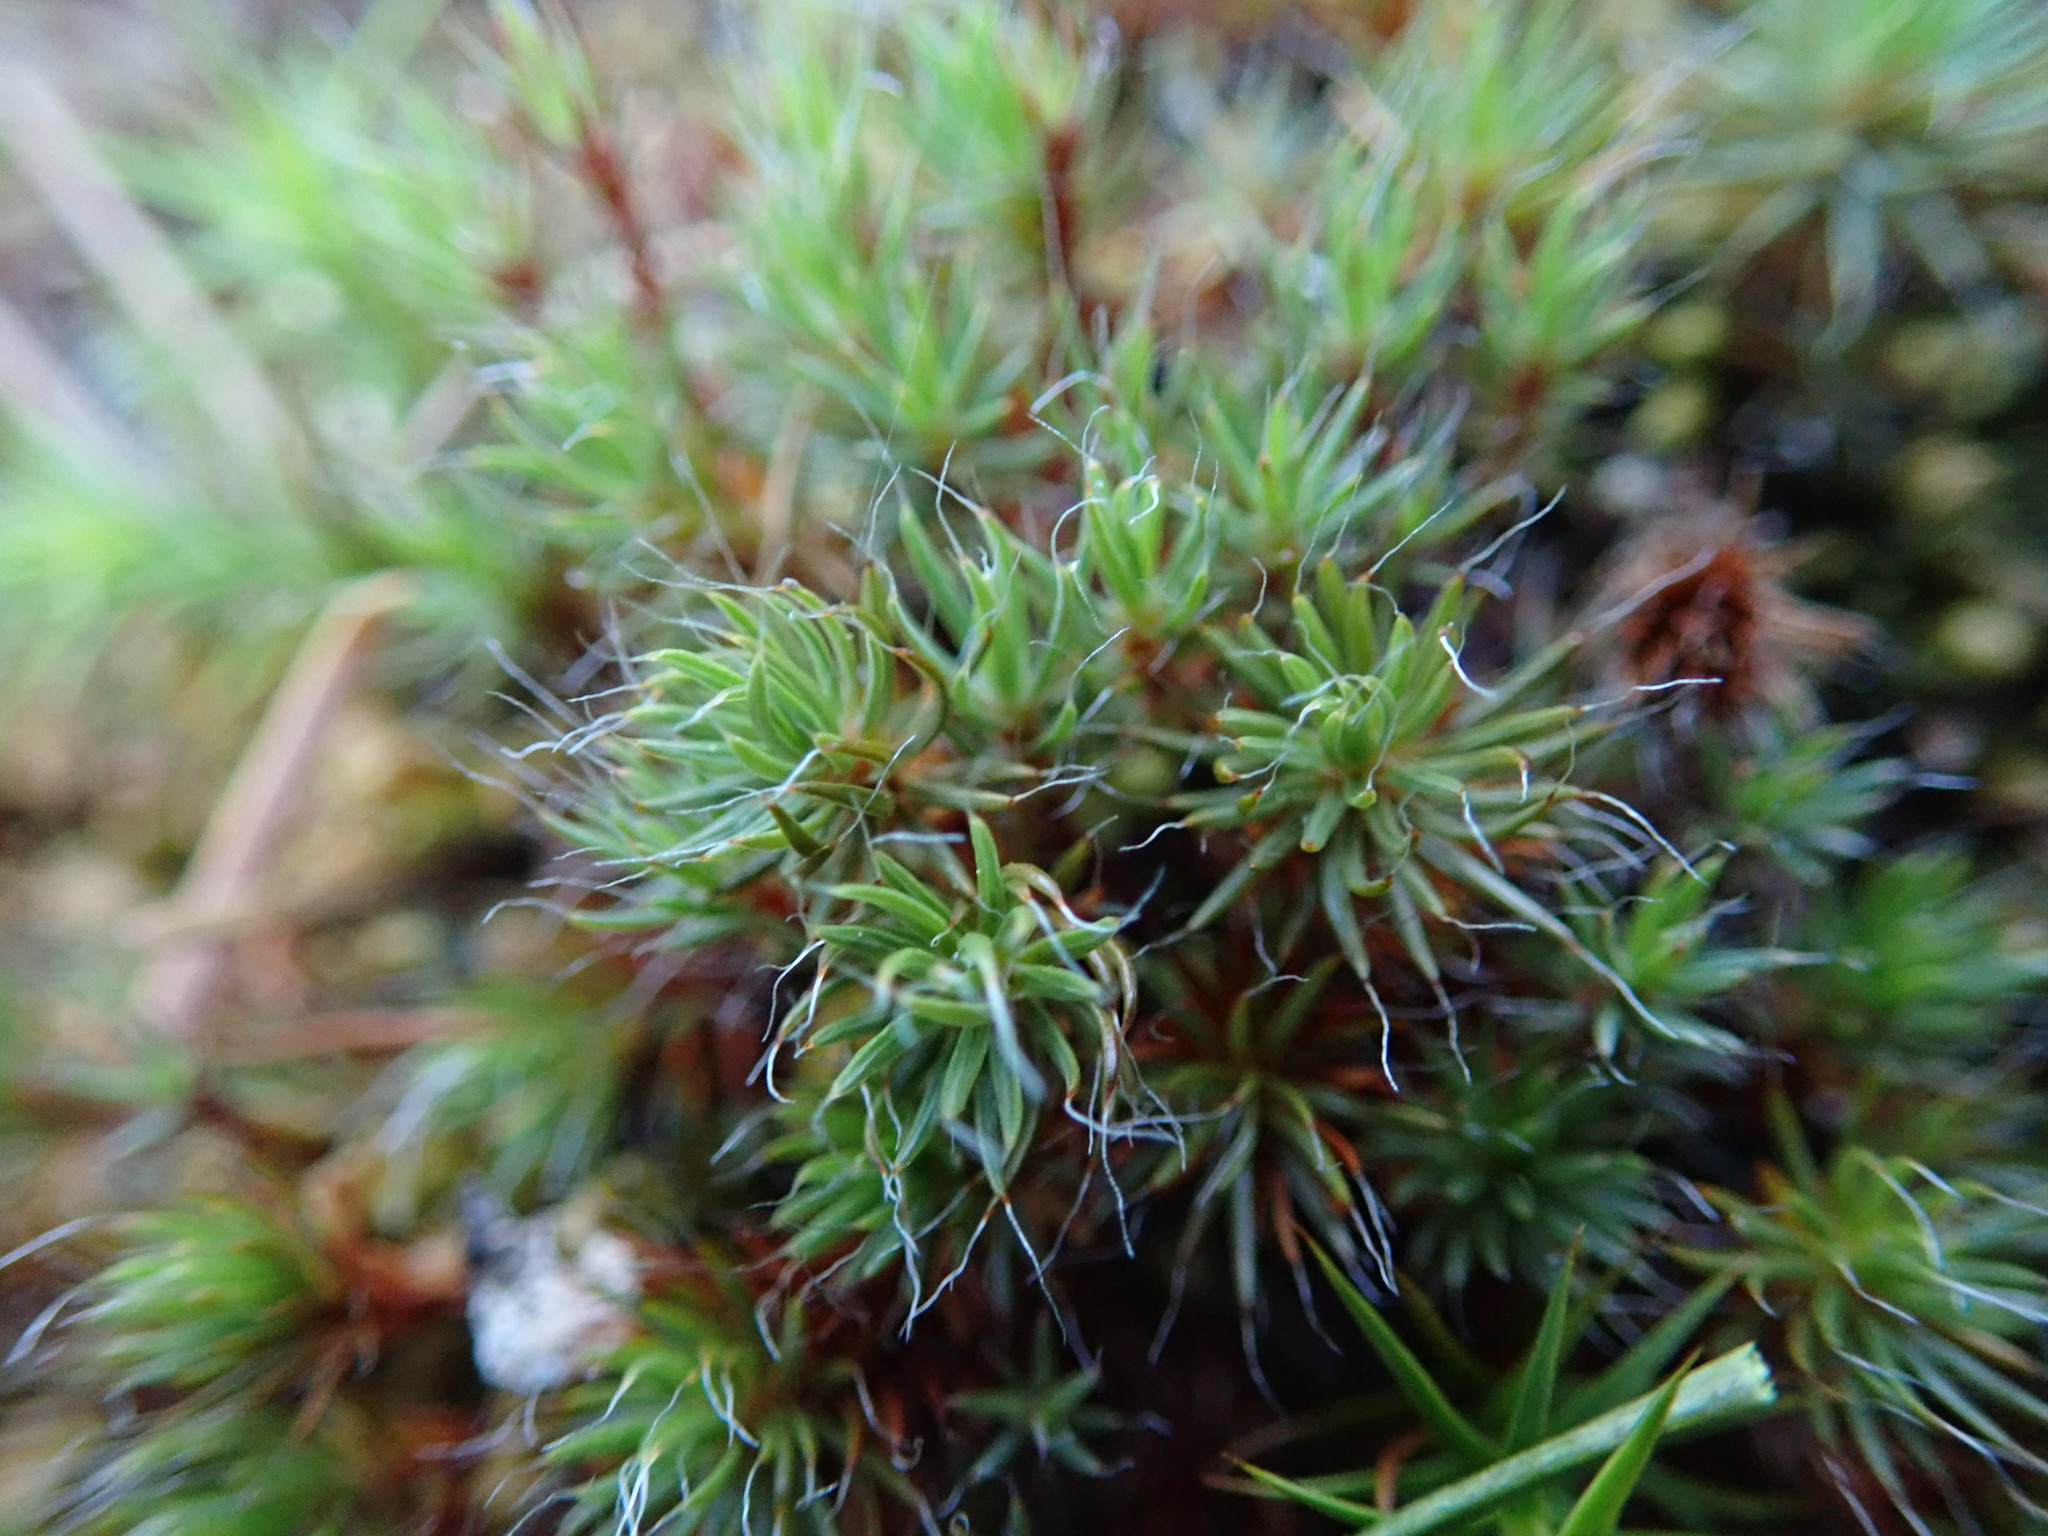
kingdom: Plantae
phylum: Bryophyta
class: Polytrichopsida
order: Polytrichales
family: Polytrichaceae
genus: Polytrichum
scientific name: Polytrichum piliferum
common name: Bristly haircap
